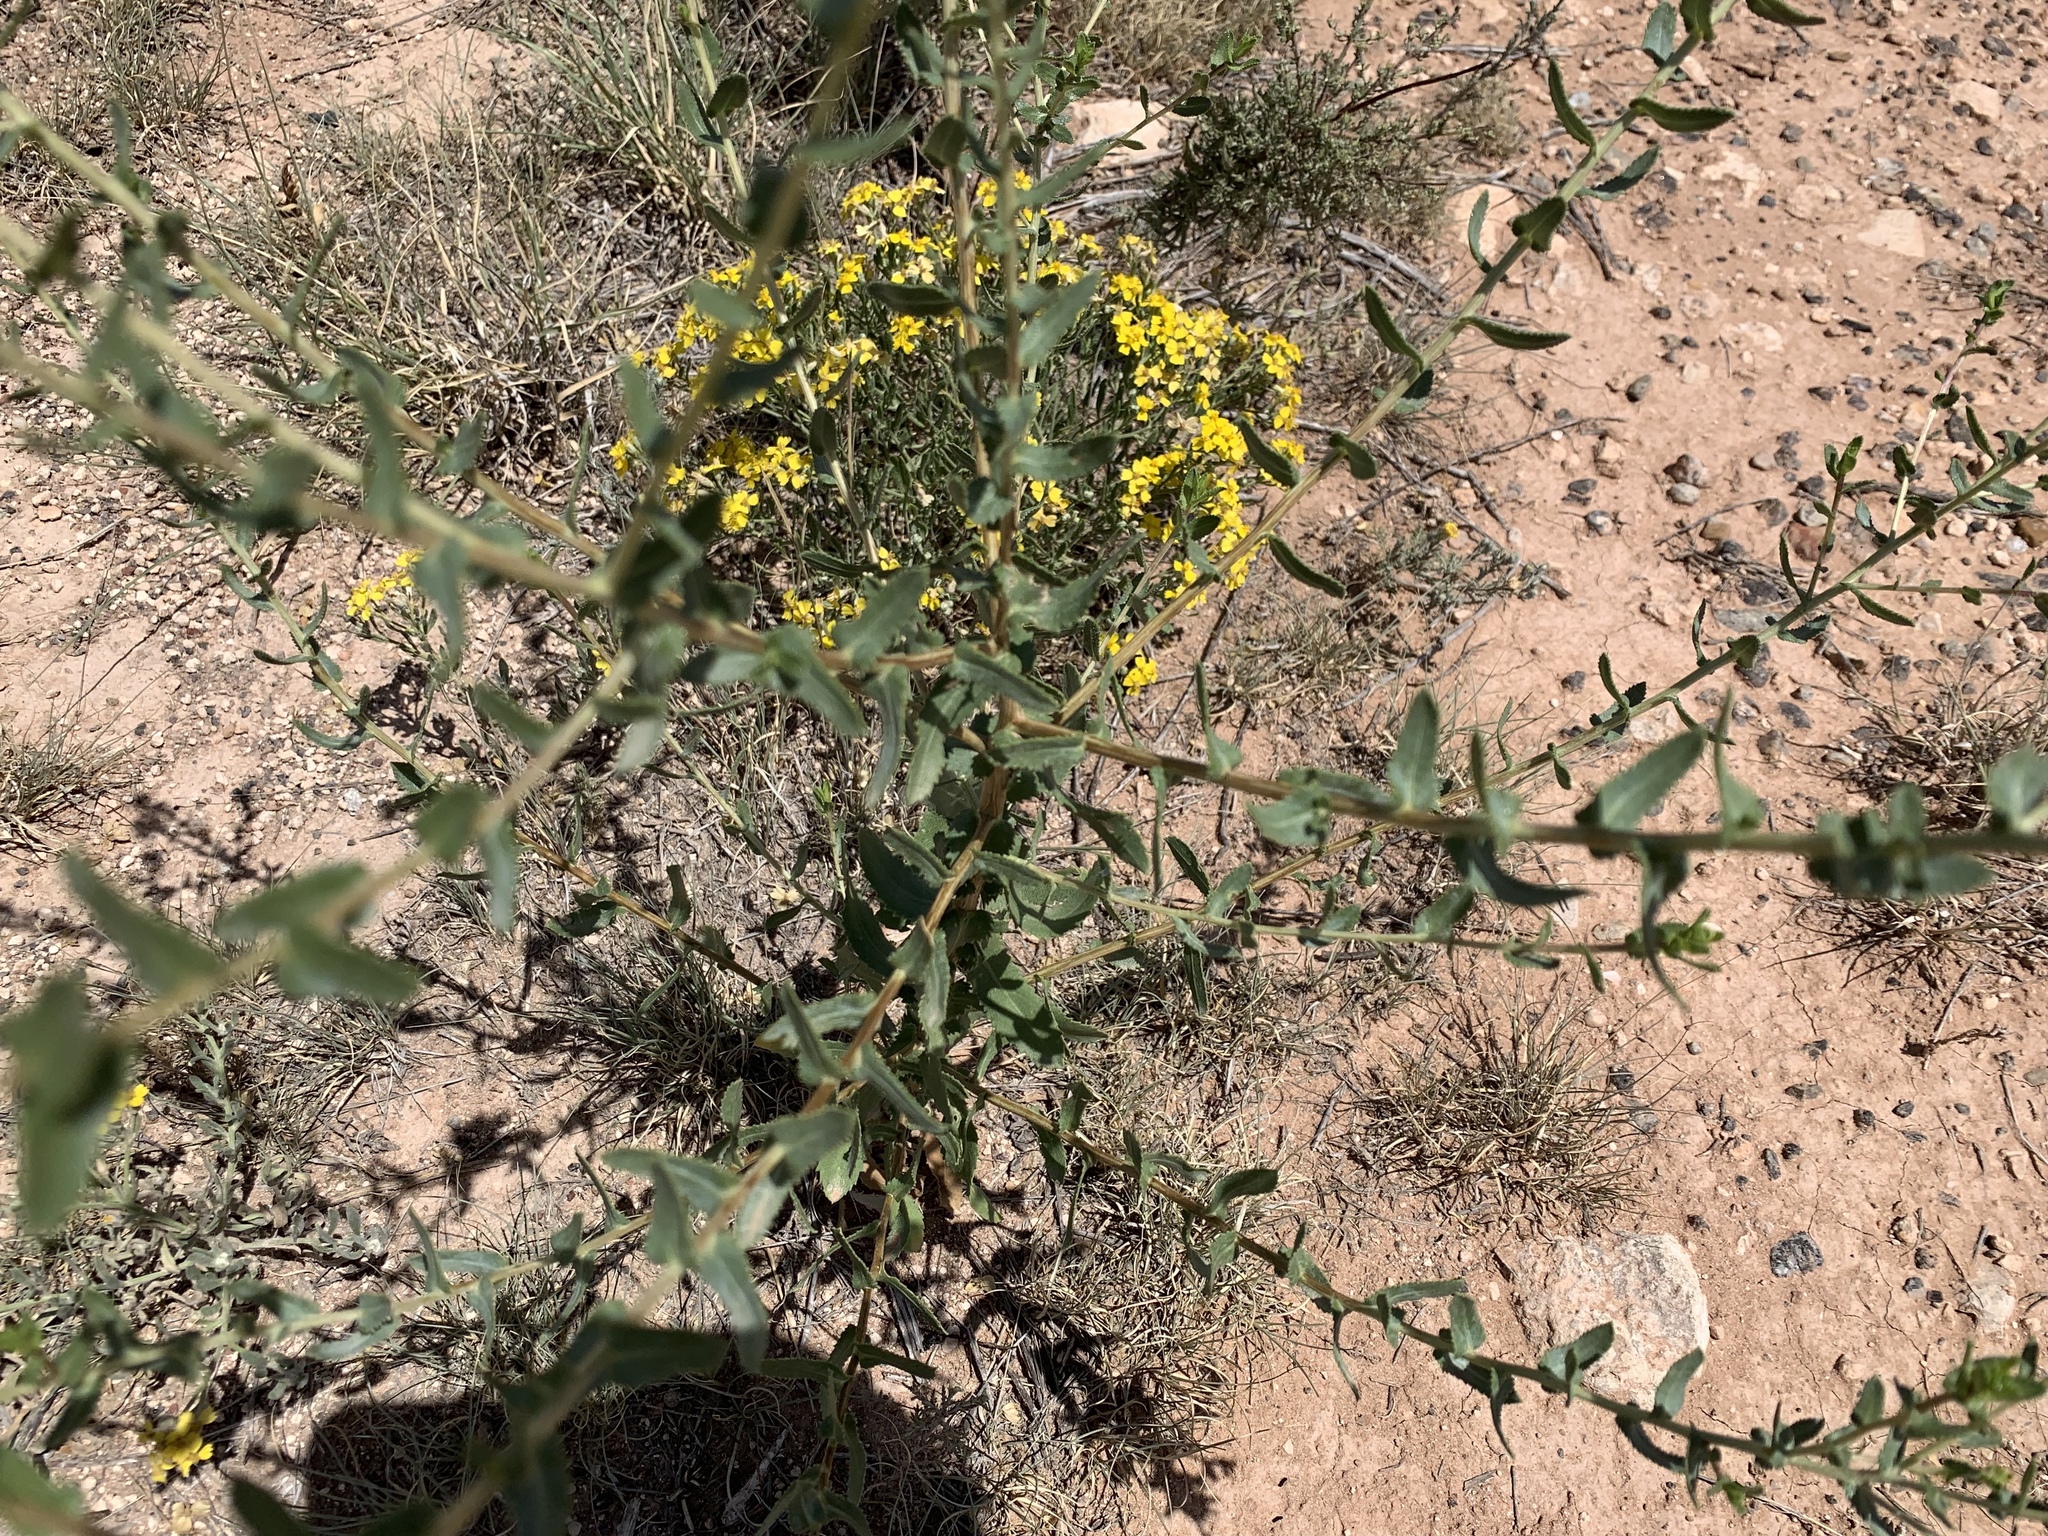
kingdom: Plantae
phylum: Tracheophyta
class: Magnoliopsida
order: Asterales
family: Asteraceae
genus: Grindelia
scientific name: Grindelia squarrosa
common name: Curly-cup gumweed
